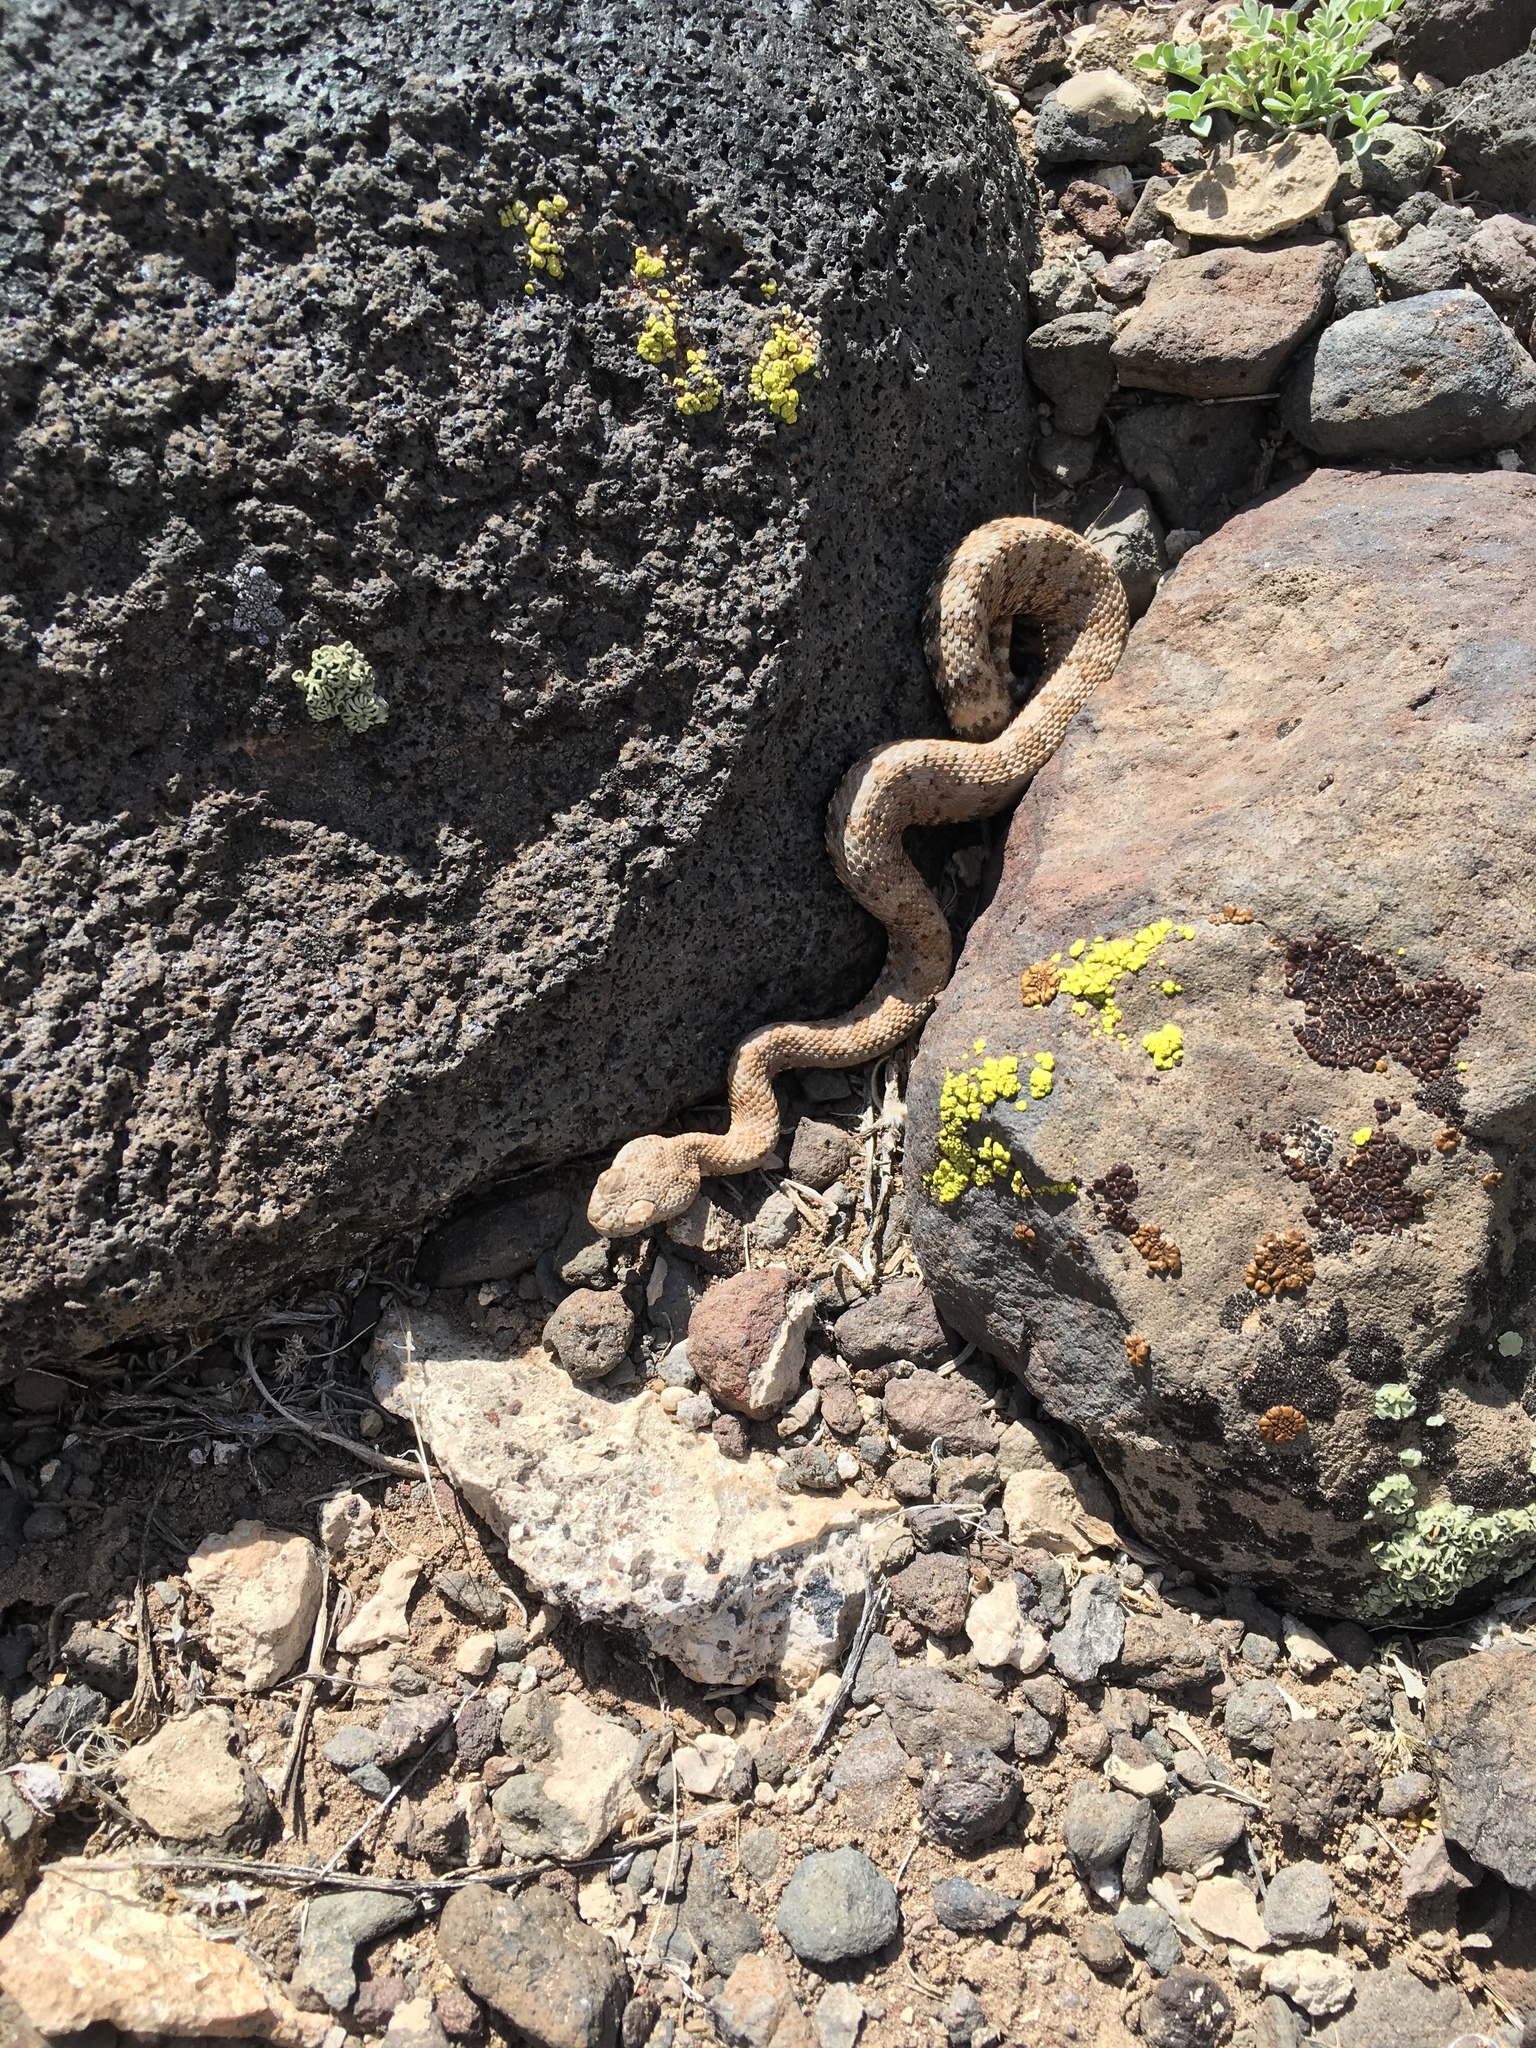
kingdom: Animalia
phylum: Chordata
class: Squamata
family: Viperidae
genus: Crotalus
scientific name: Crotalus stephensi
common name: Panamint rattlesnake
